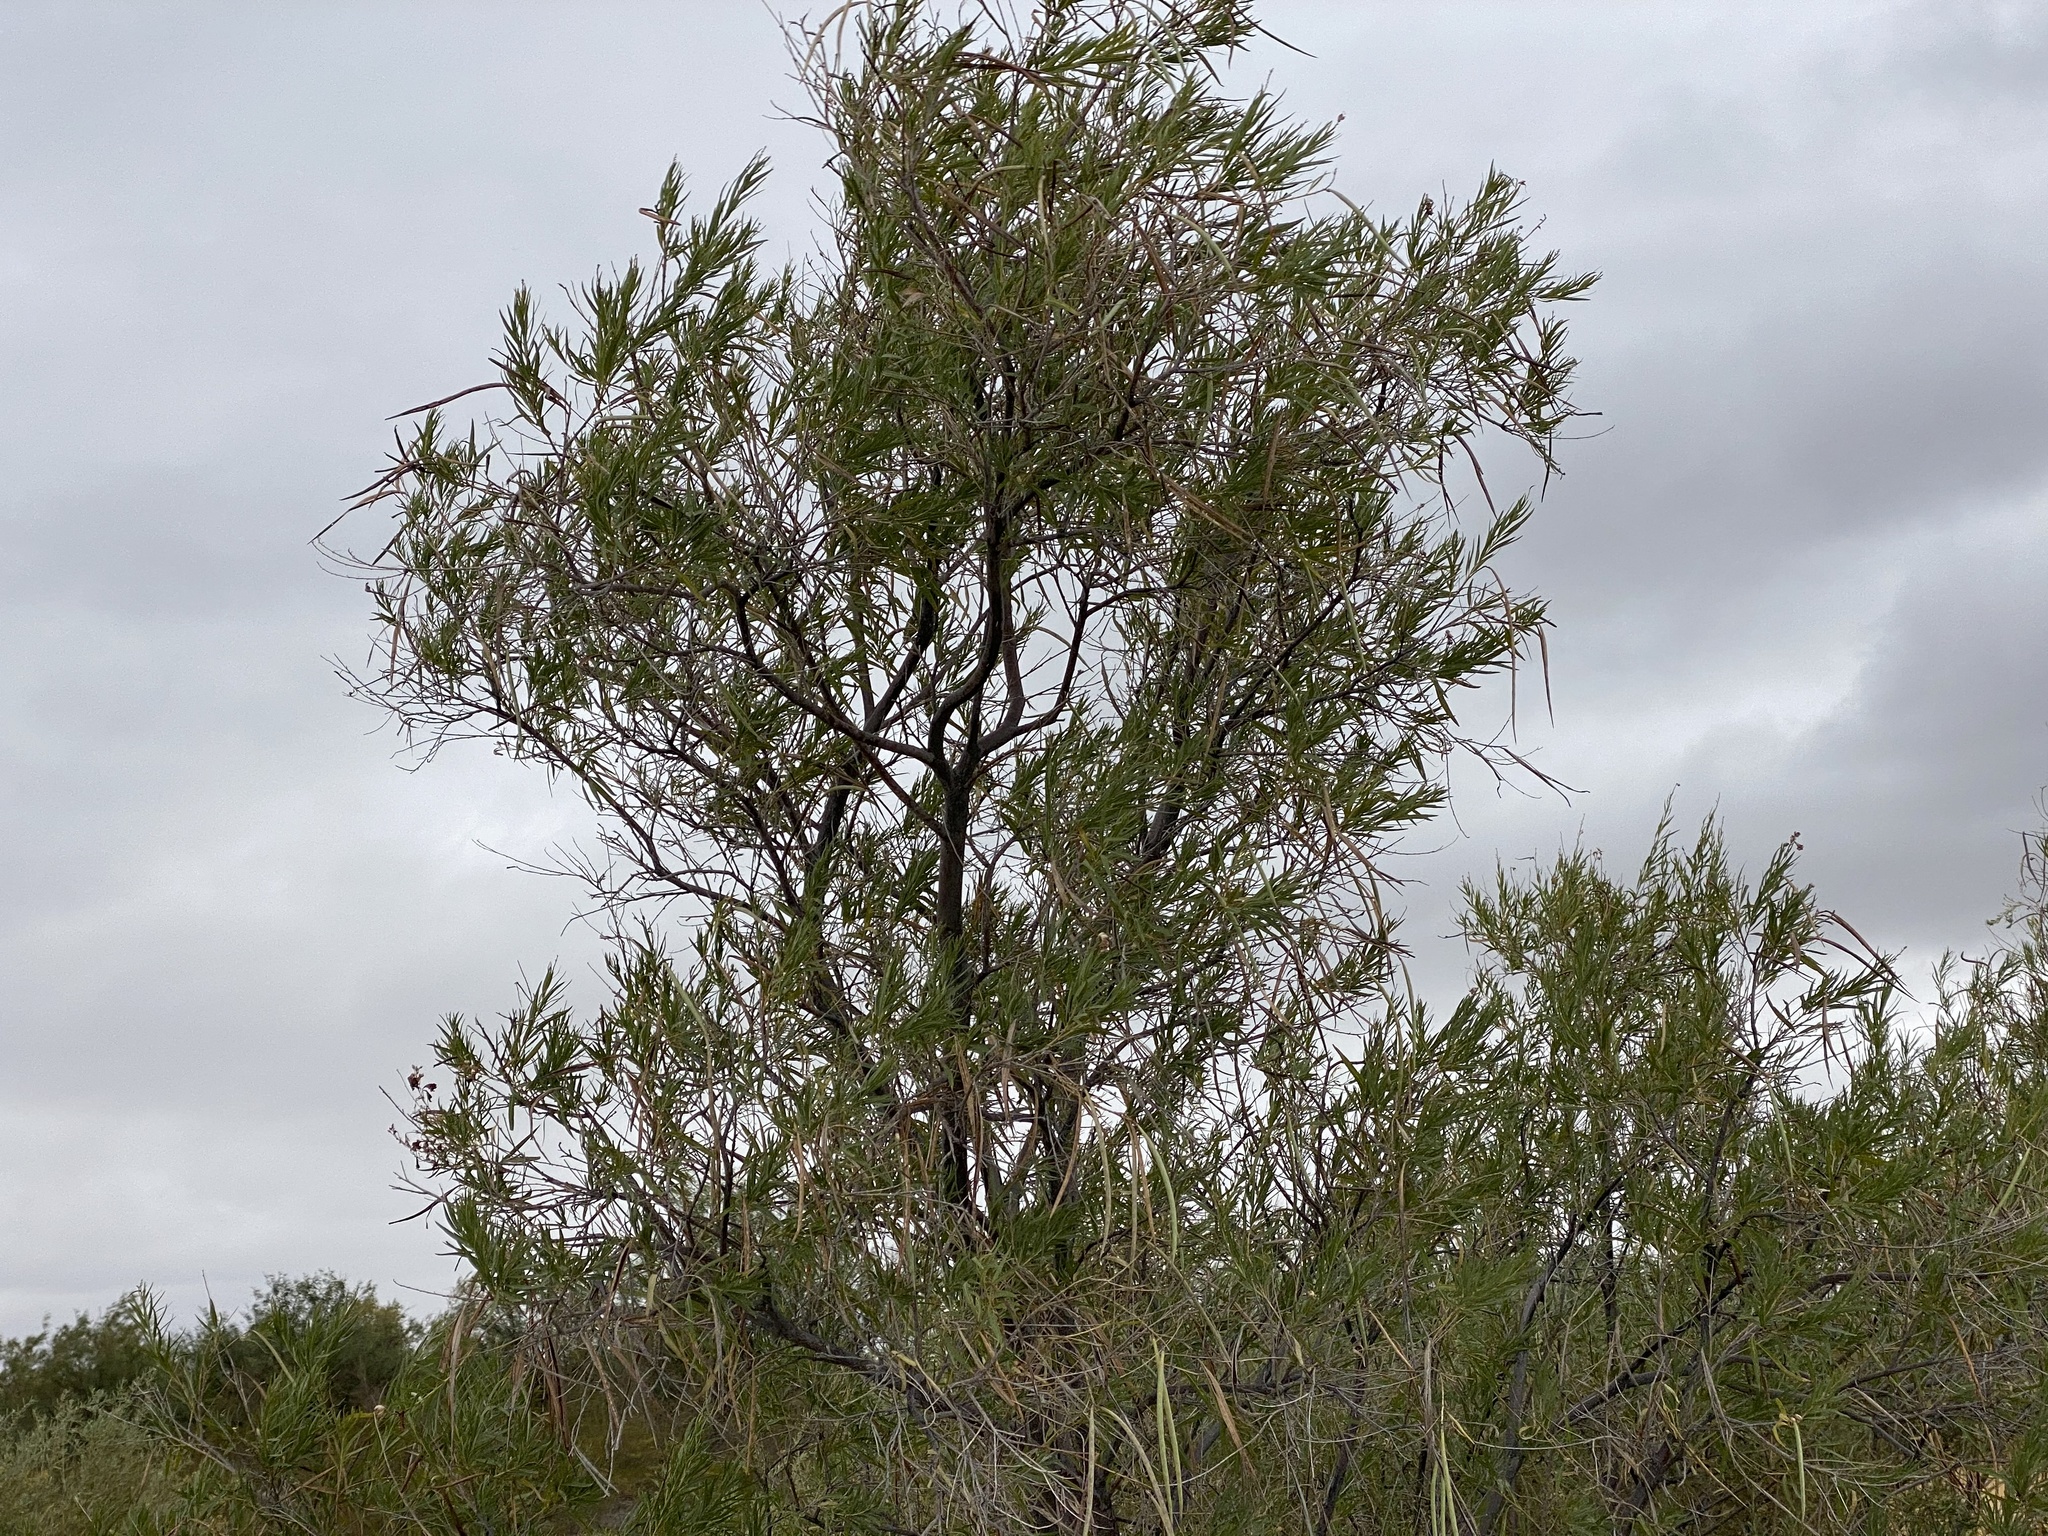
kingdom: Plantae
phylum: Tracheophyta
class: Magnoliopsida
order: Lamiales
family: Bignoniaceae
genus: Chilopsis
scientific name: Chilopsis linearis
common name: Desert-willow
